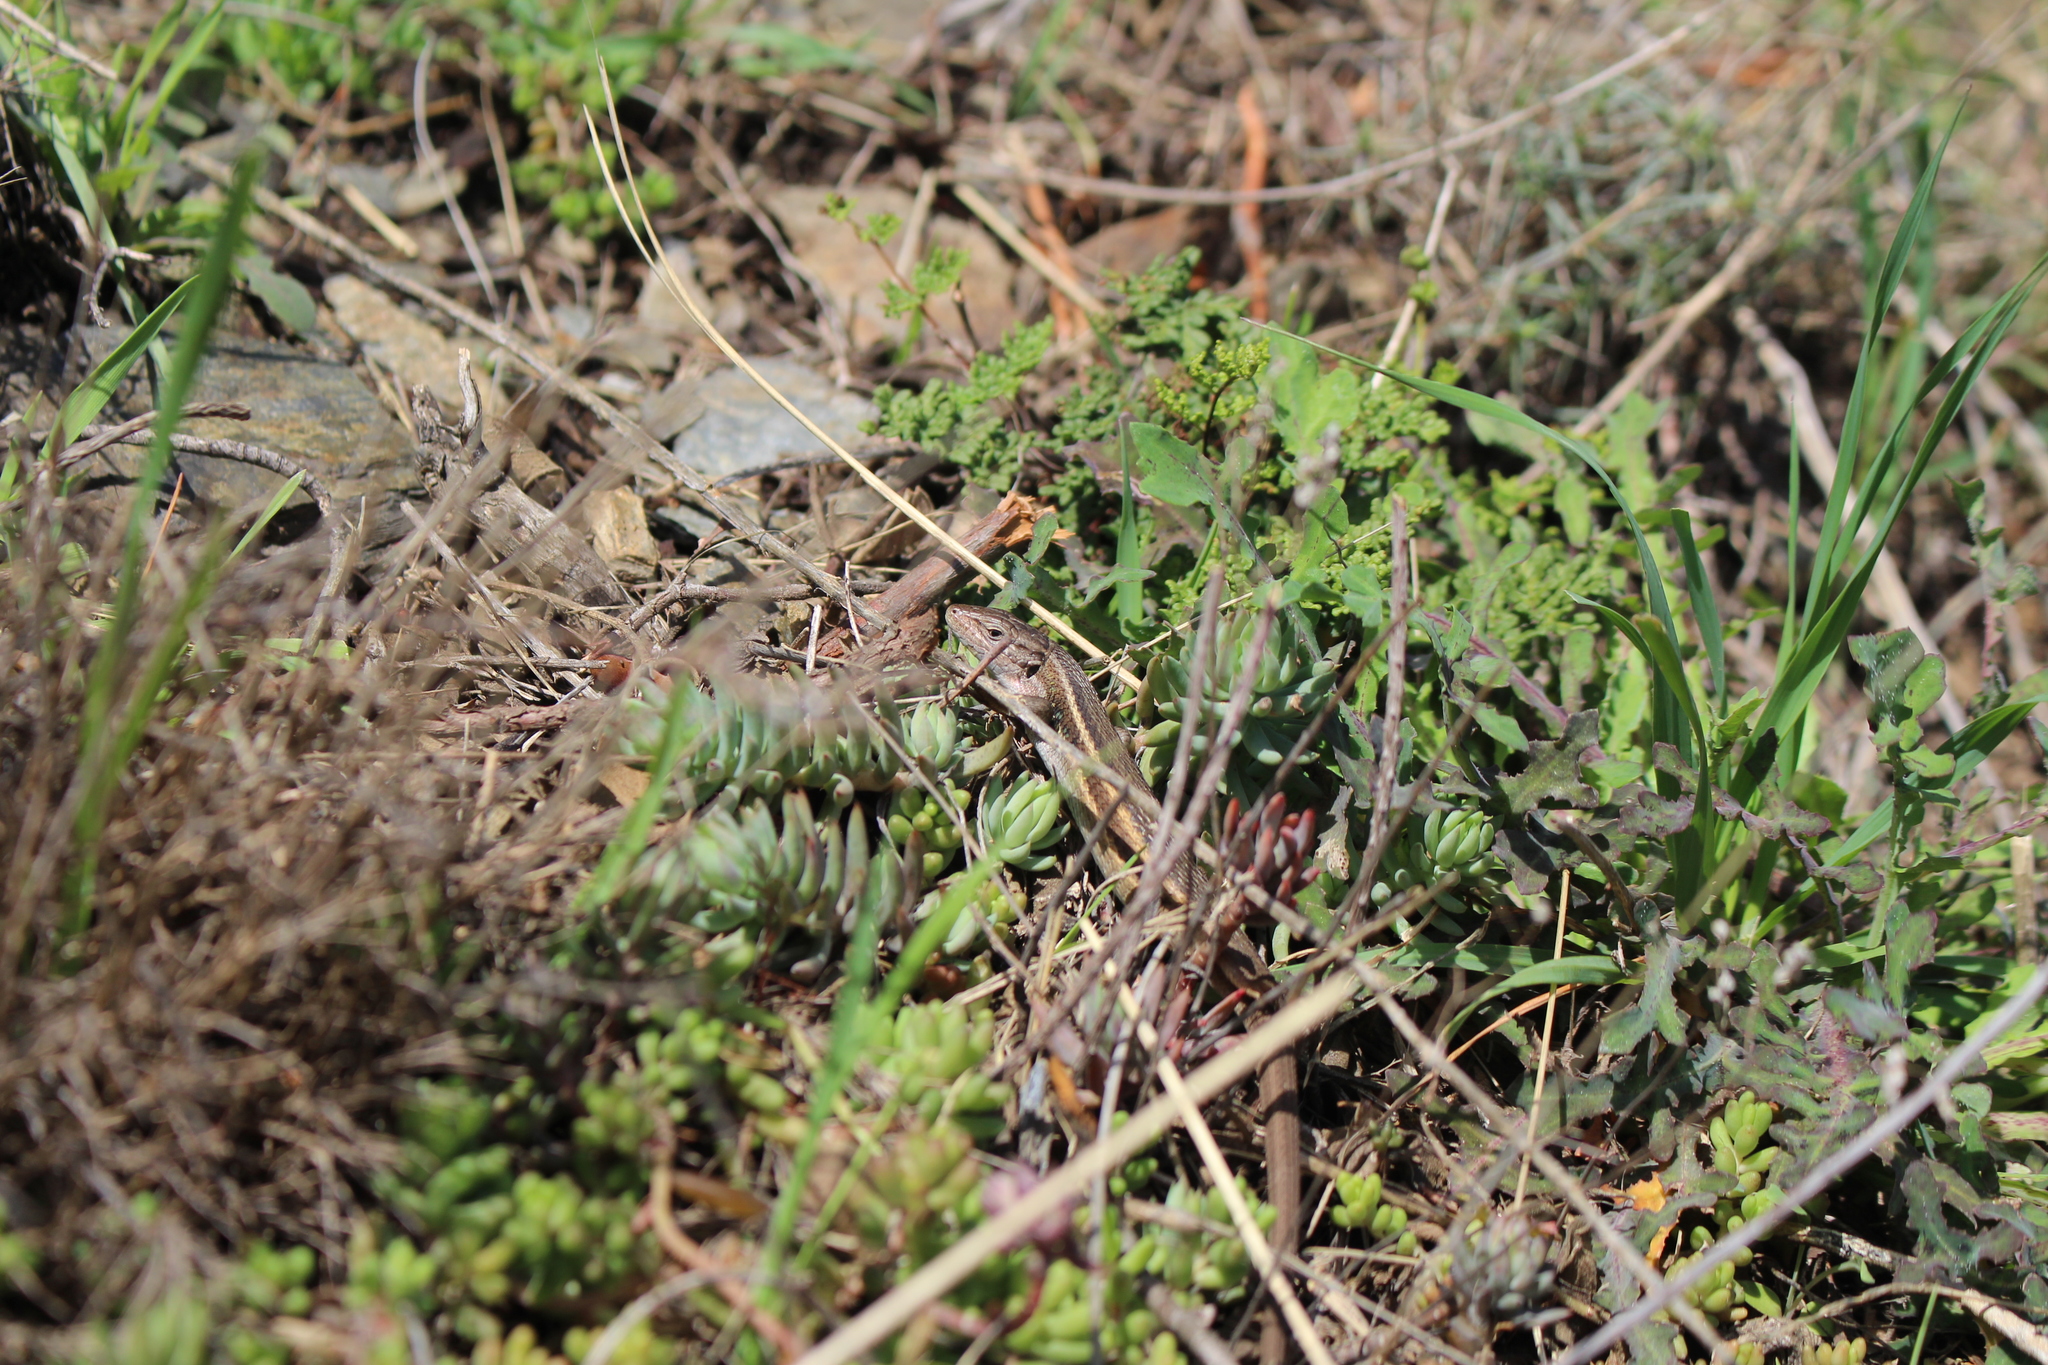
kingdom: Animalia
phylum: Chordata
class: Squamata
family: Lacertidae
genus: Psammodromus
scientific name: Psammodromus algirus
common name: Algerian psammodromus
